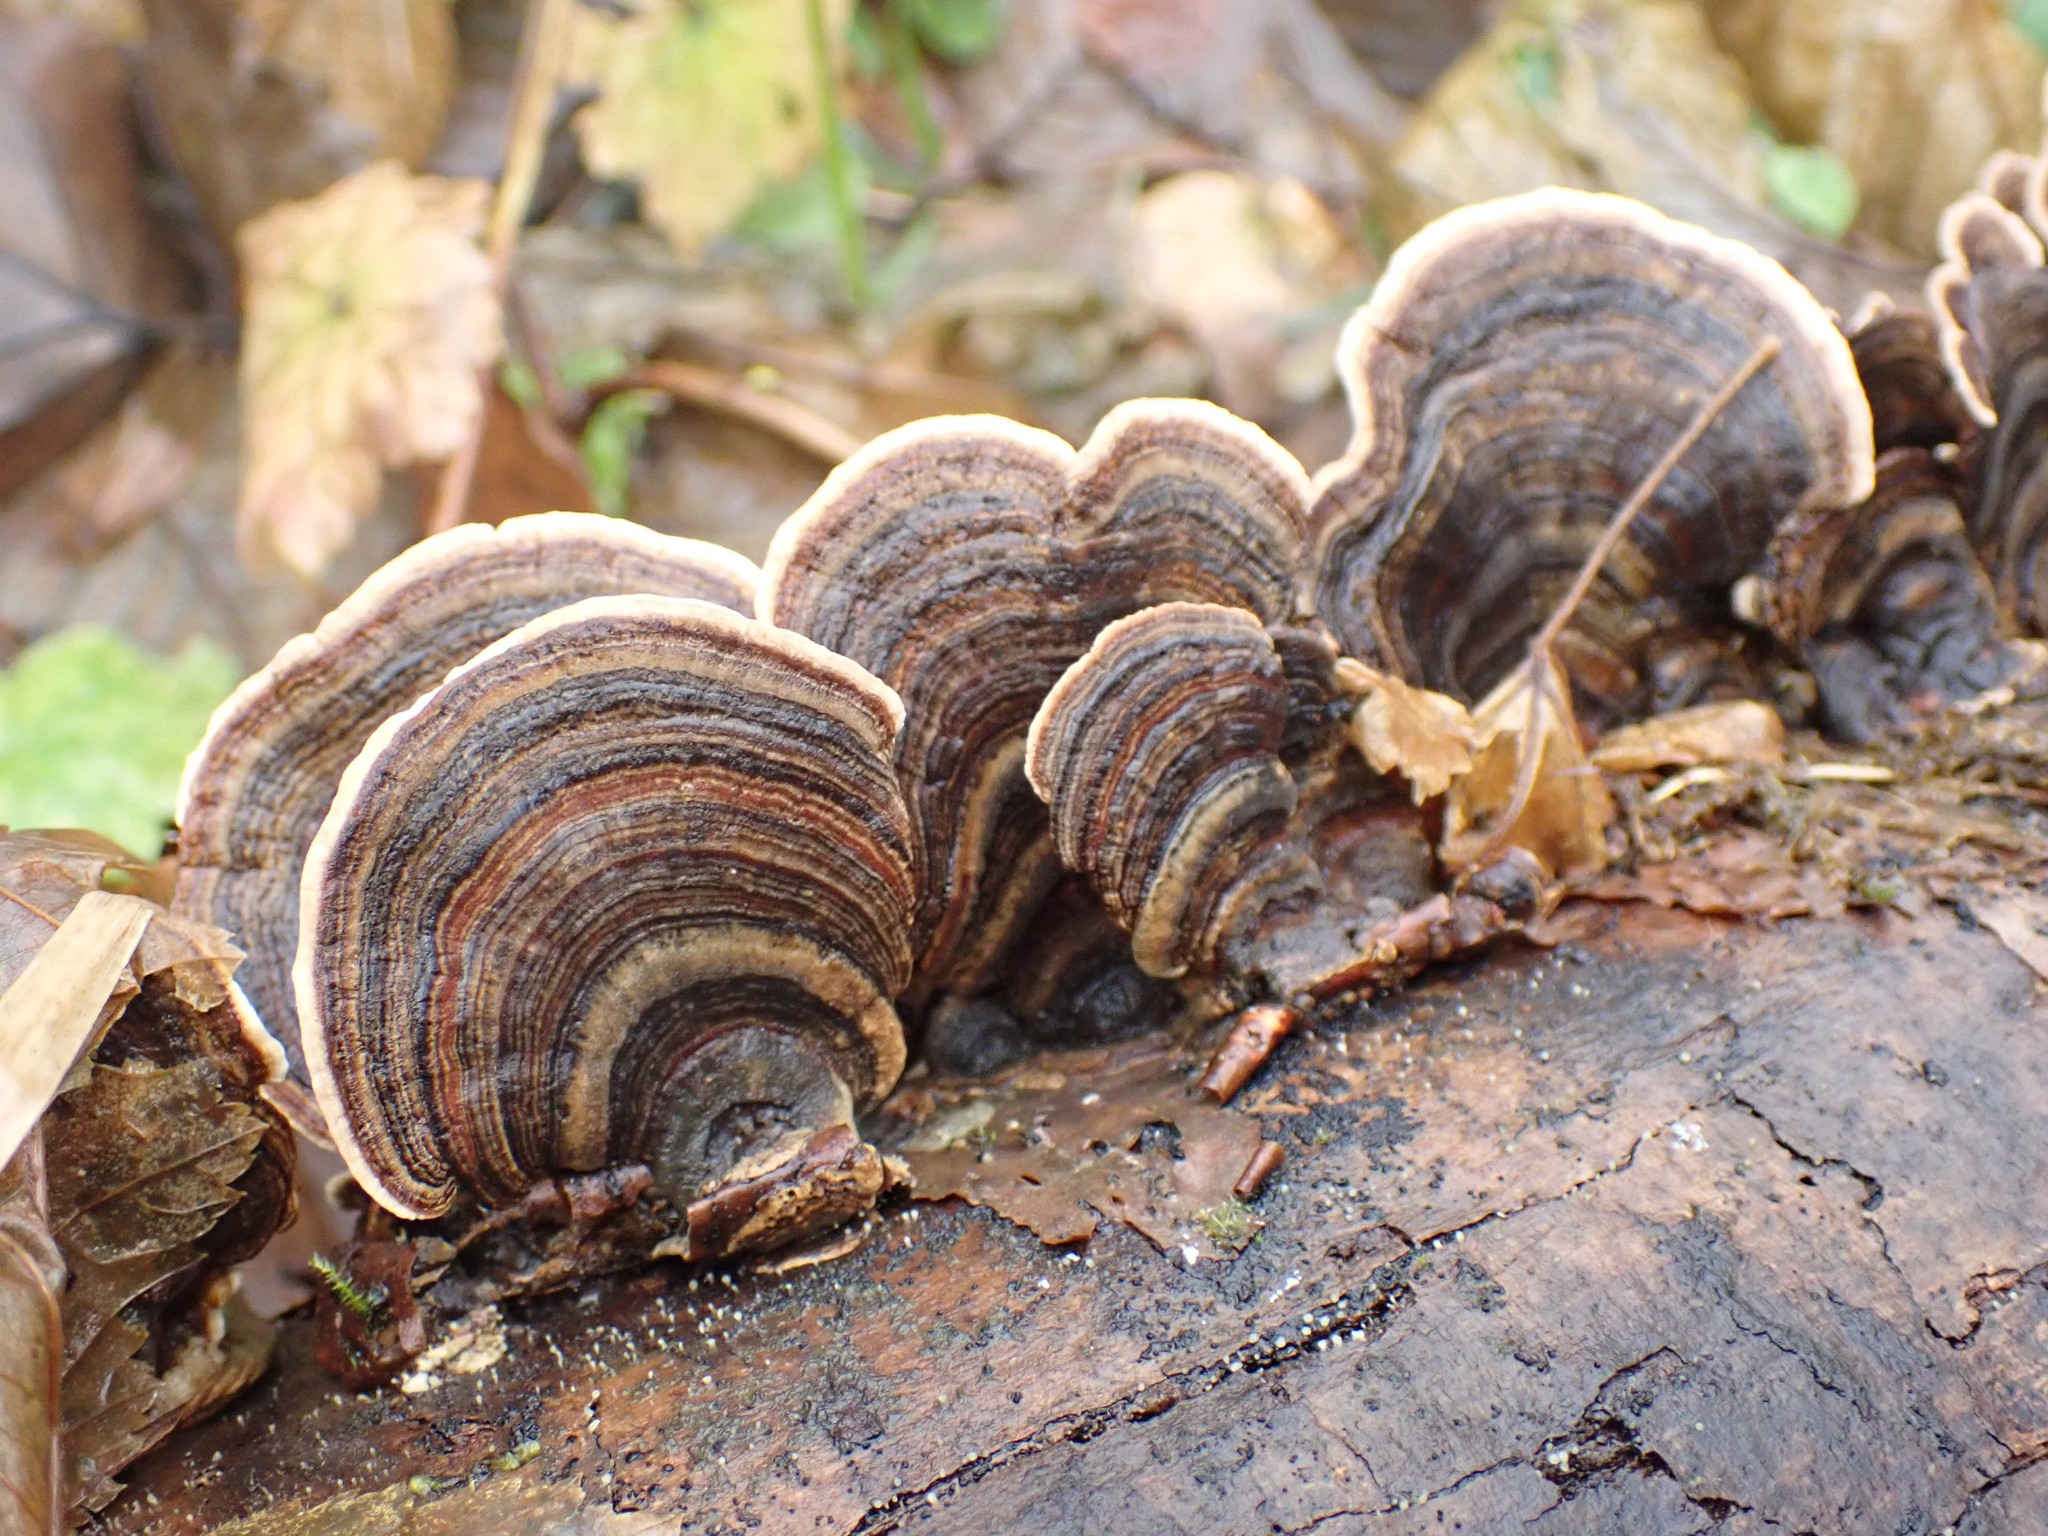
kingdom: Fungi
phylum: Basidiomycota
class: Agaricomycetes
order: Polyporales
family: Polyporaceae
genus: Trametes
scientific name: Trametes versicolor
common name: Turkeytail
